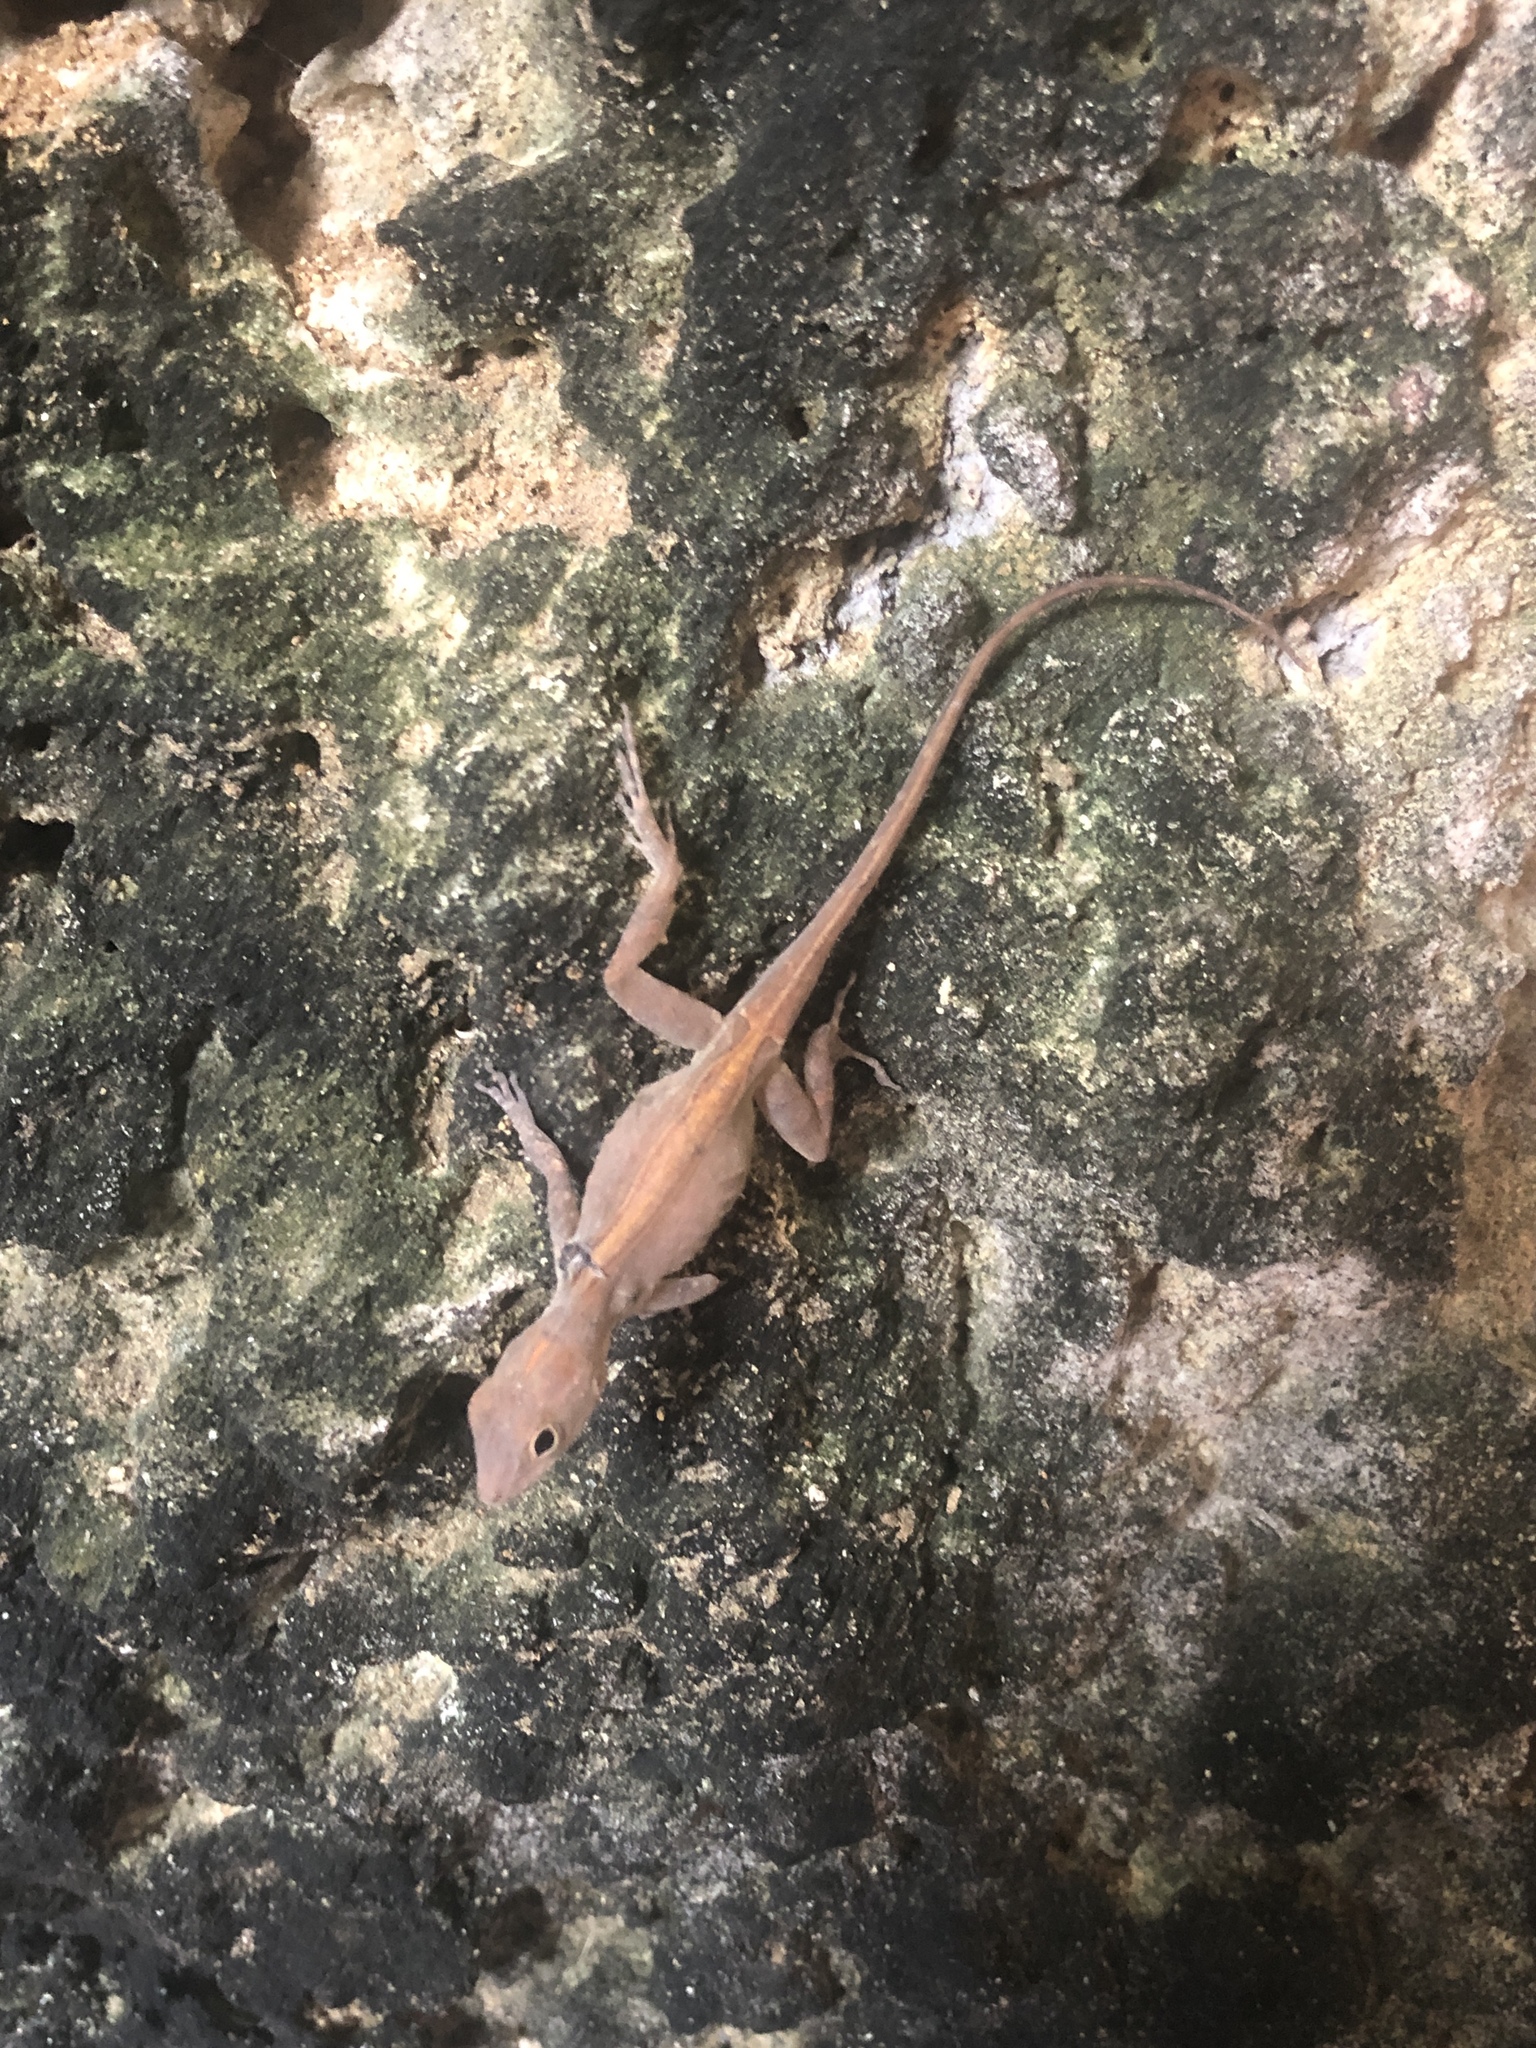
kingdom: Animalia
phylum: Chordata
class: Squamata
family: Dactyloidae
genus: Anolis
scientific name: Anolis cristatellus
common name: Crested anole
